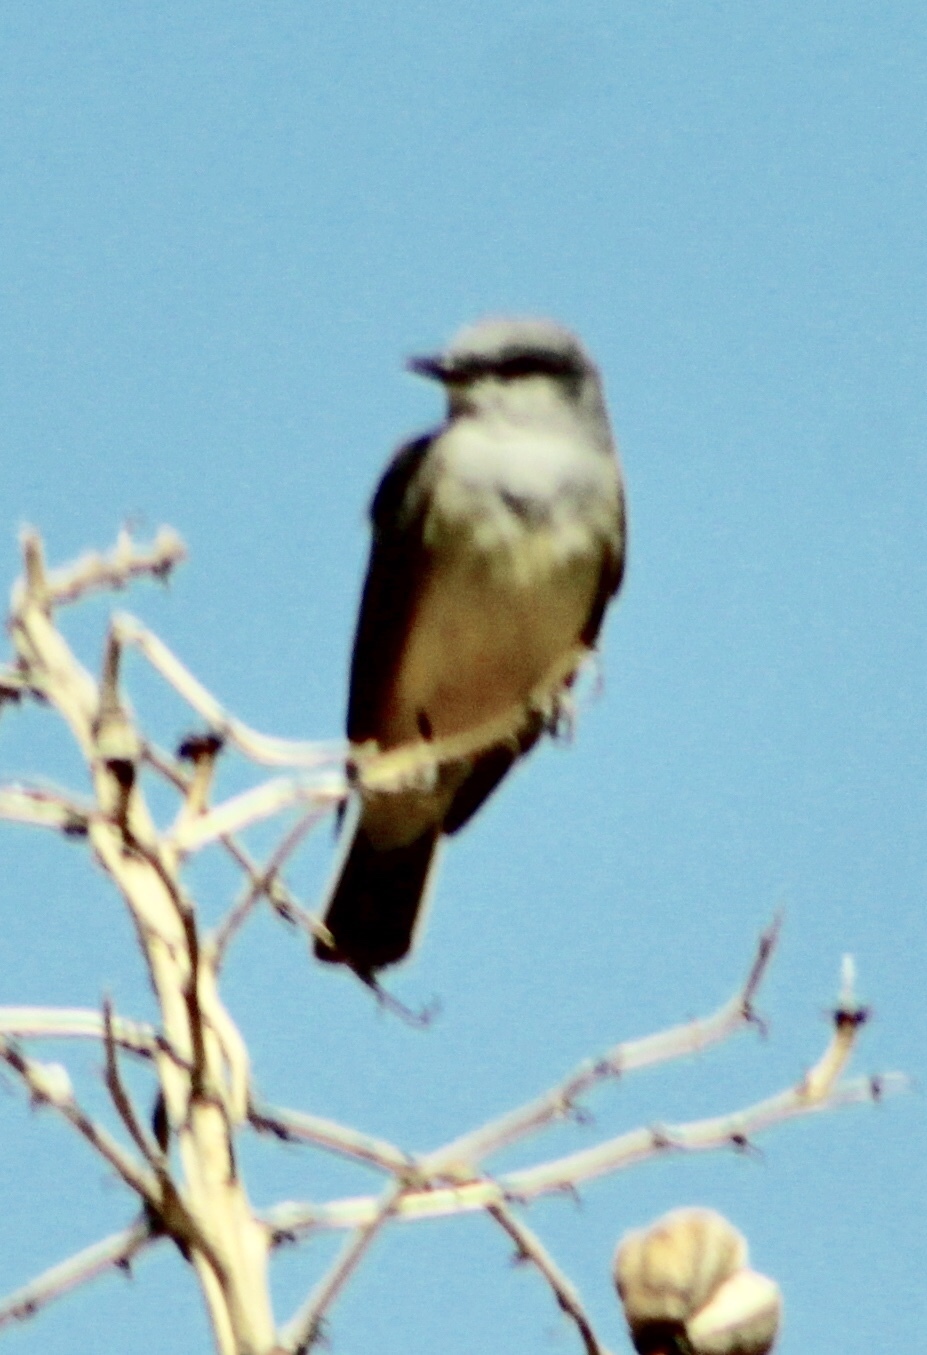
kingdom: Animalia
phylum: Chordata
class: Aves
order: Passeriformes
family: Tyrannidae
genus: Tyrannus
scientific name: Tyrannus verticalis
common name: Western kingbird
